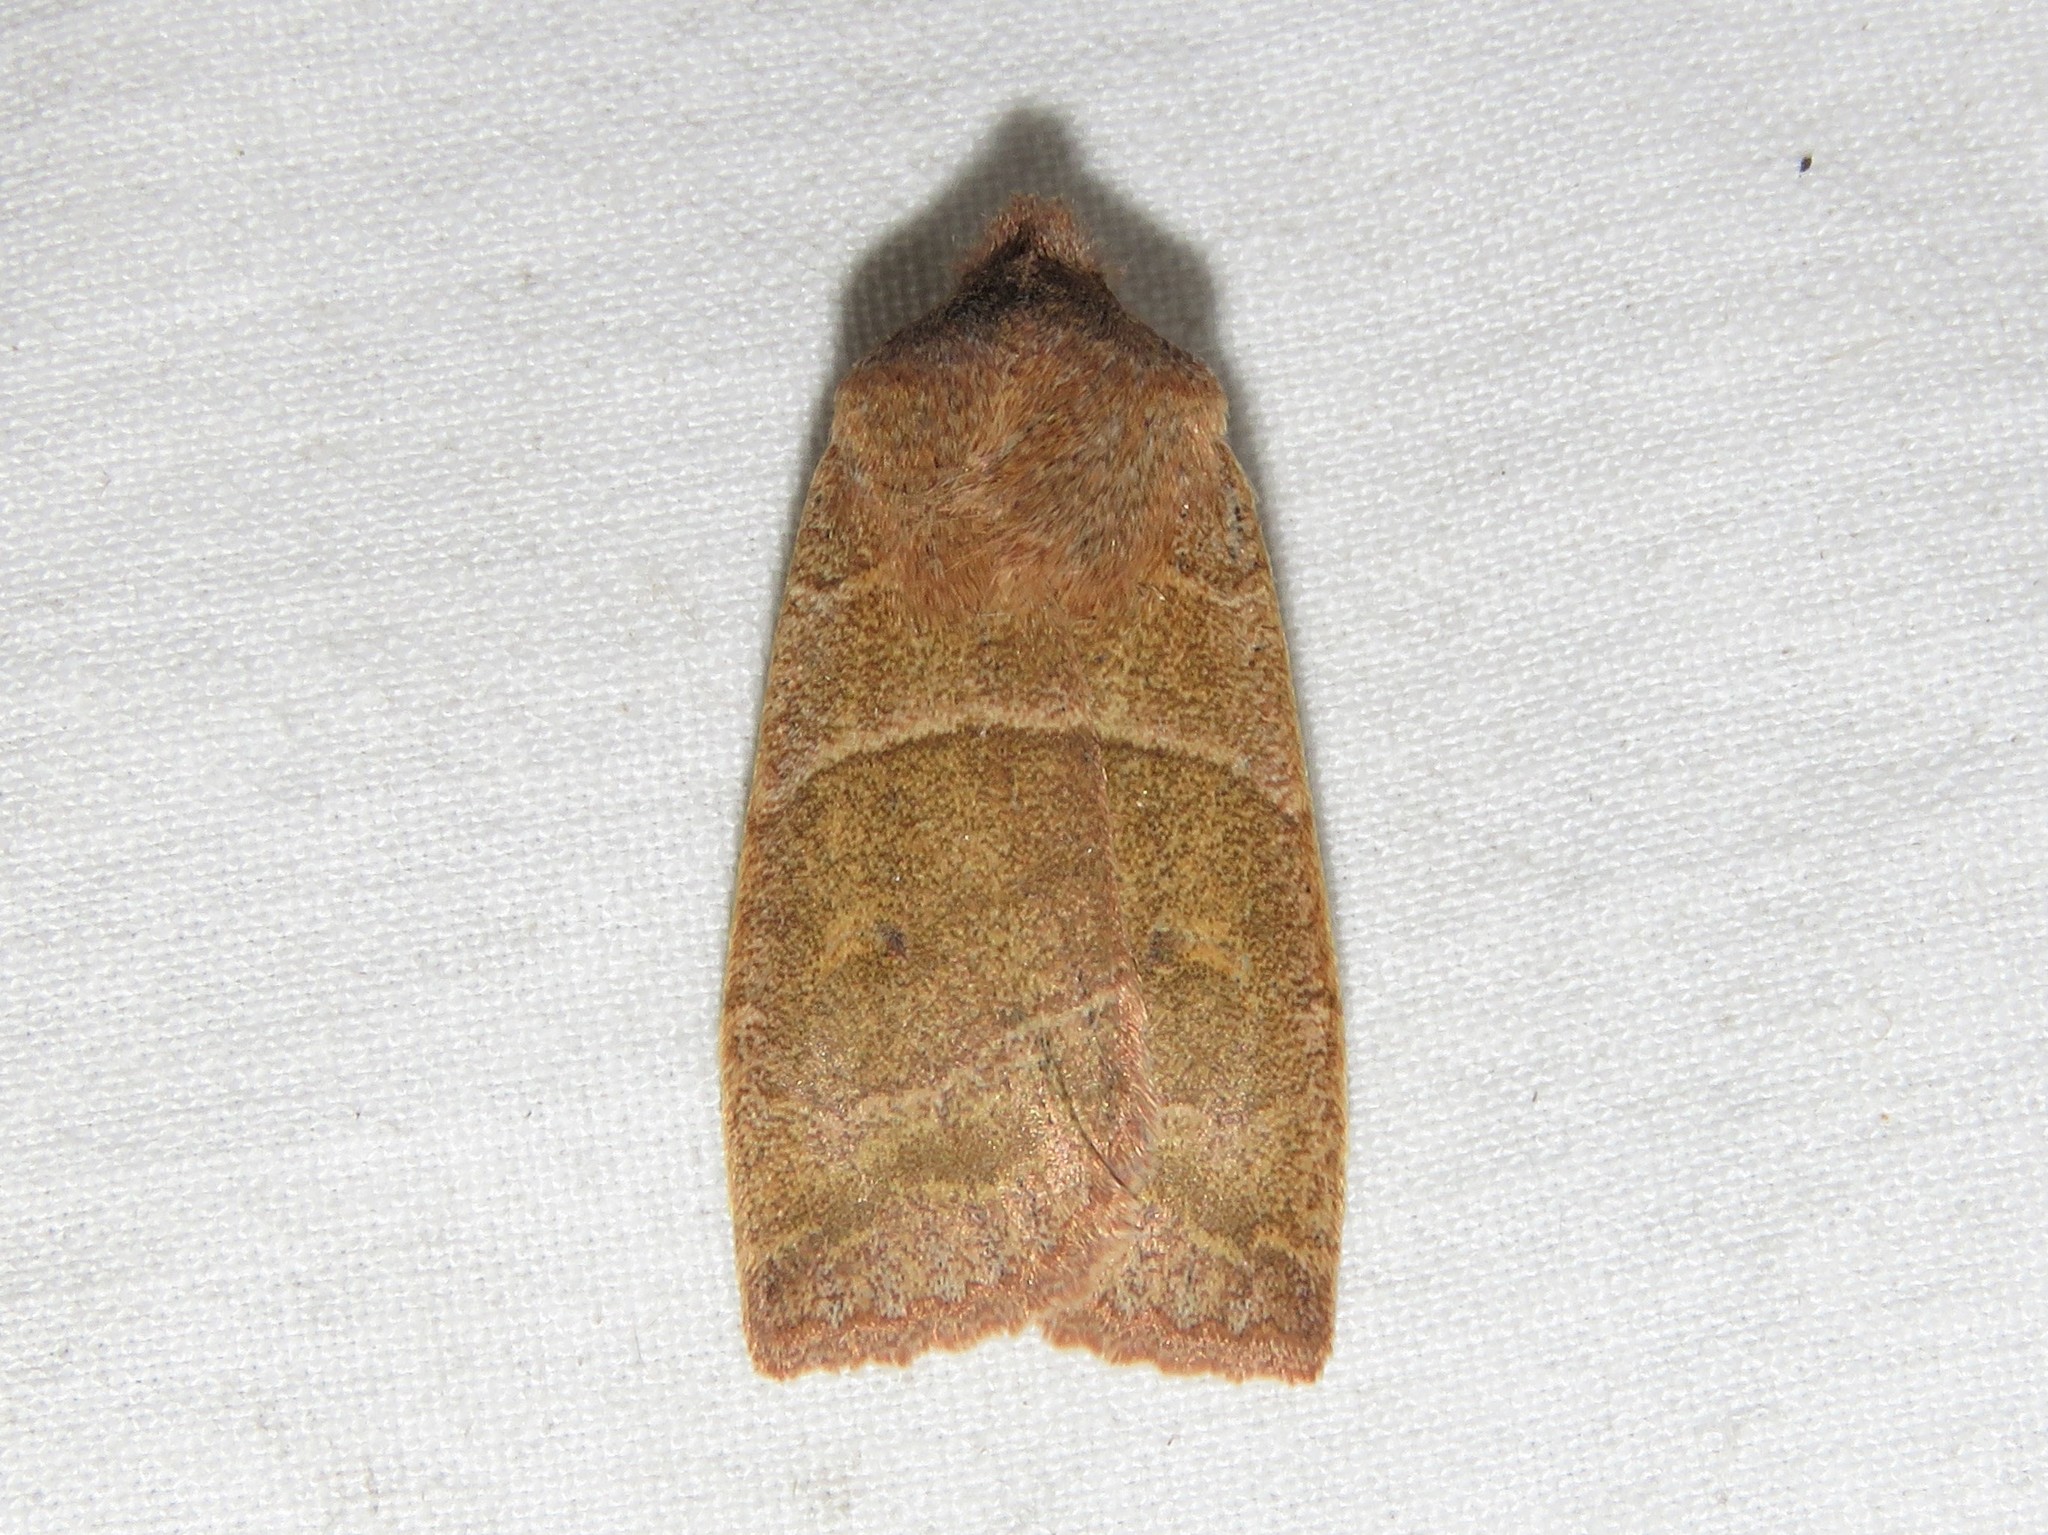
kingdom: Animalia
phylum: Arthropoda
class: Insecta
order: Lepidoptera
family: Noctuidae
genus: Eupsilia
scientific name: Eupsilia morrisoni
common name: Morrison's sallow
